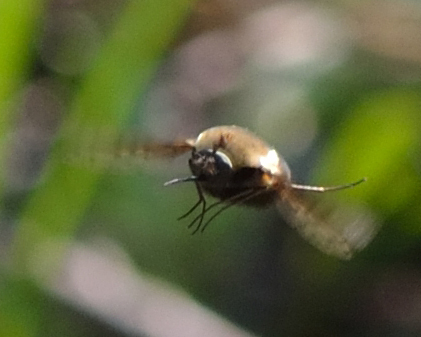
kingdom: Animalia
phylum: Arthropoda
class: Insecta
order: Diptera
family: Bombyliidae
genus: Bombylius
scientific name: Bombylius discolor
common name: Dotted bee-fly
